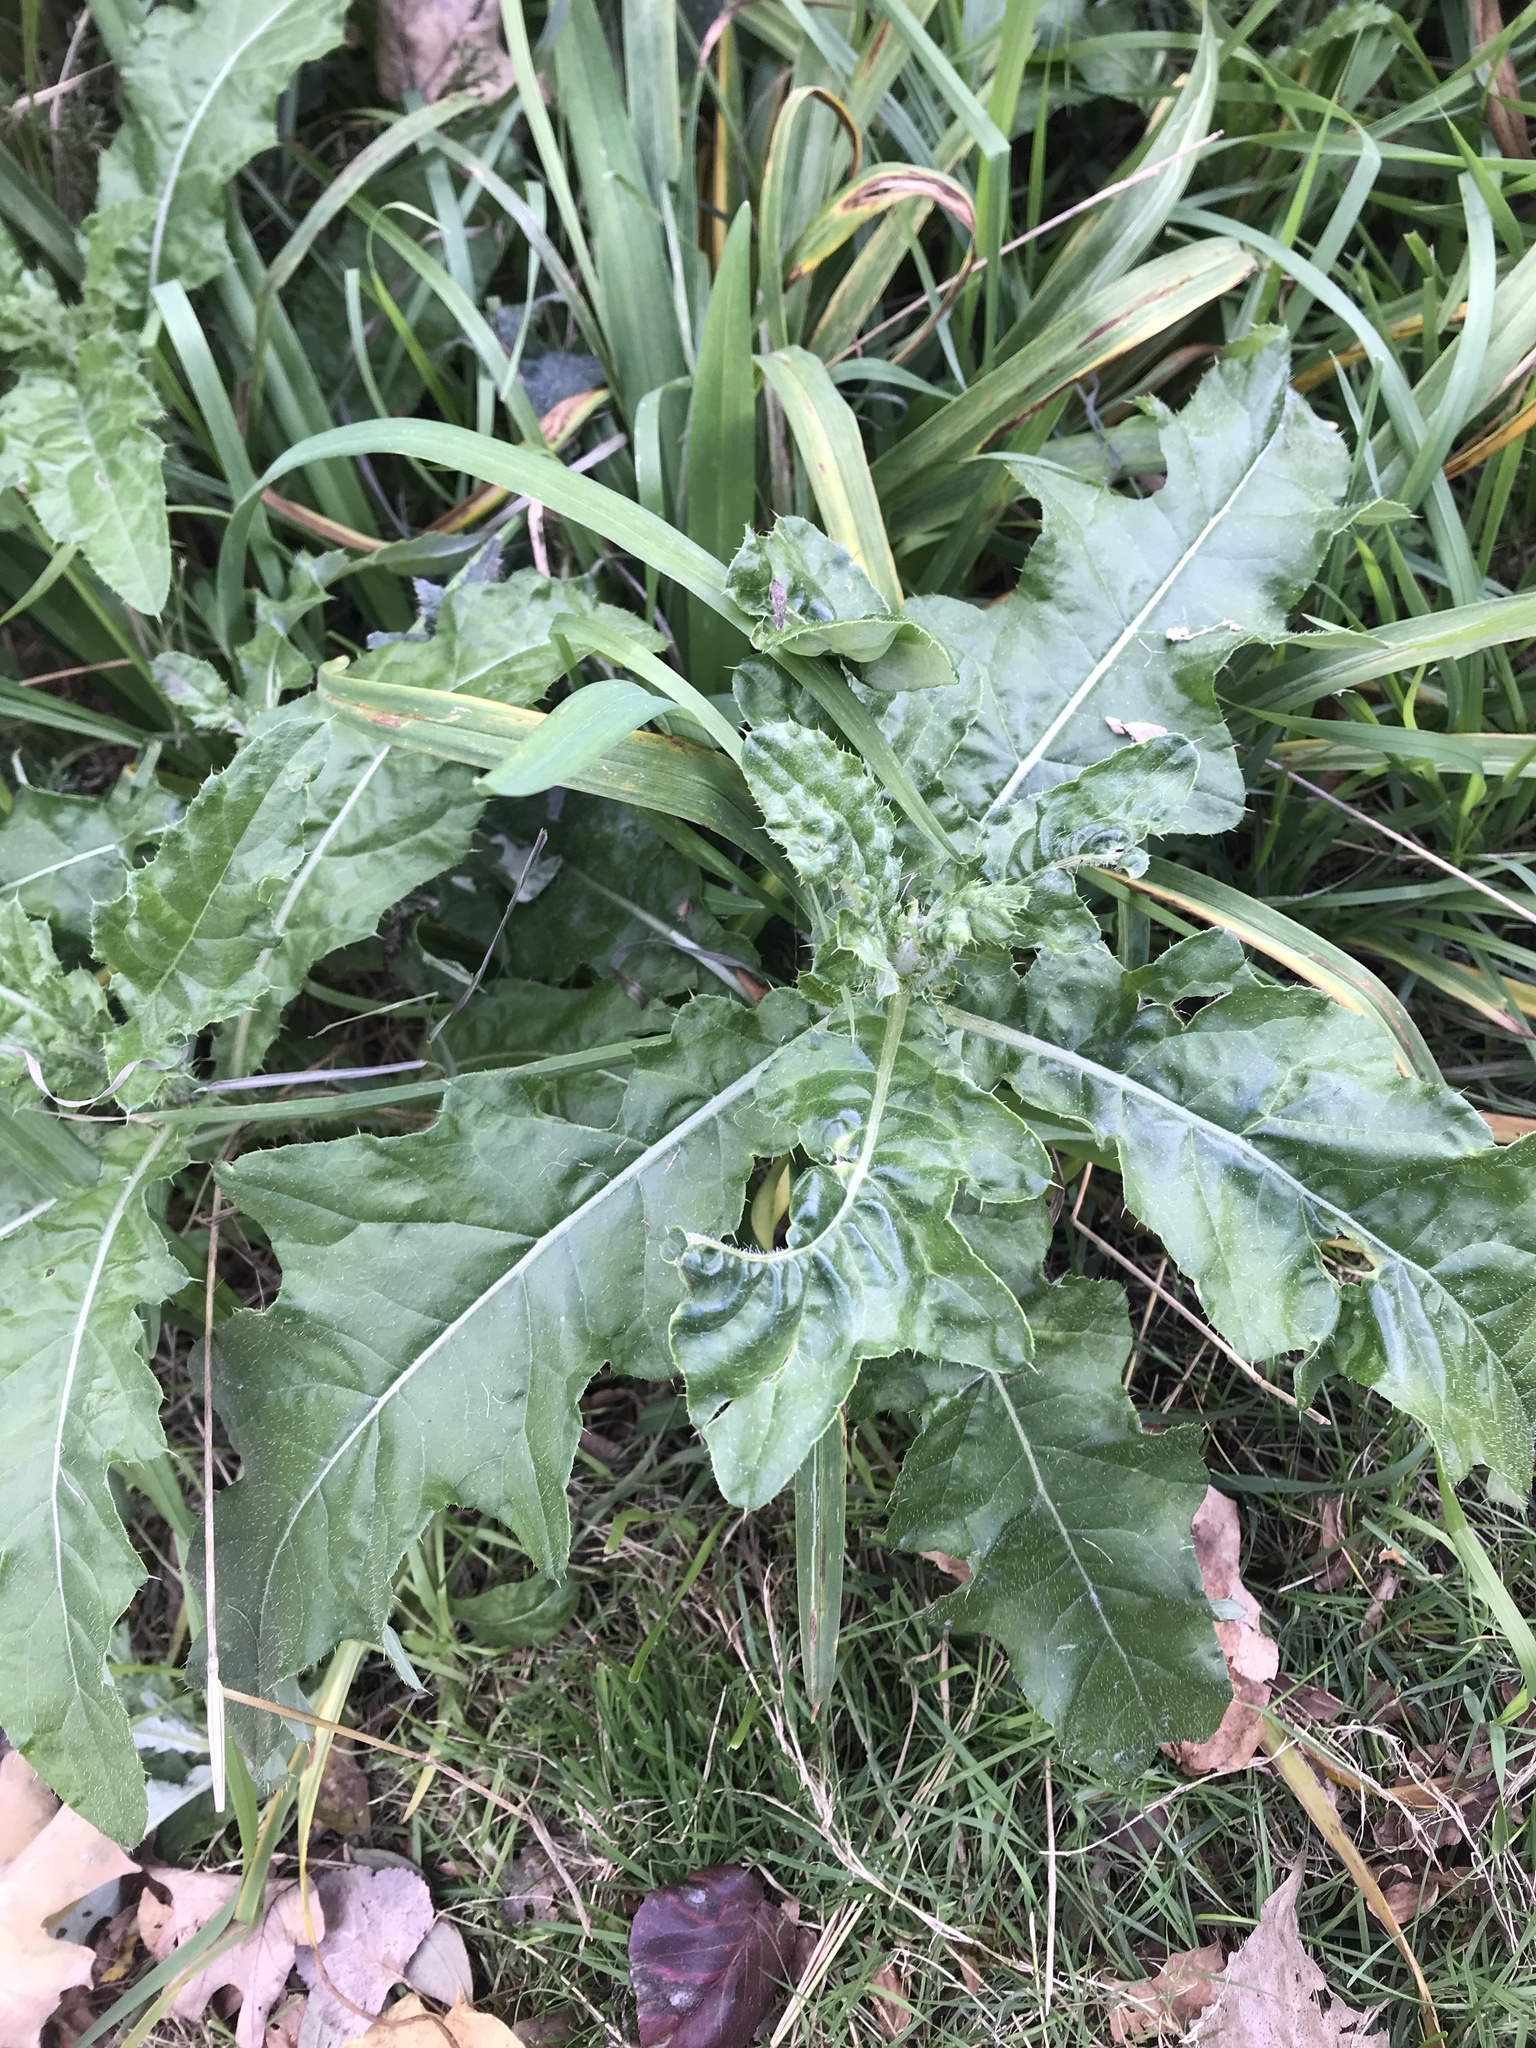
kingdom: Plantae
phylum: Tracheophyta
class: Magnoliopsida
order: Asterales
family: Asteraceae
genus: Cirsium
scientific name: Cirsium arvense
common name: Creeping thistle
